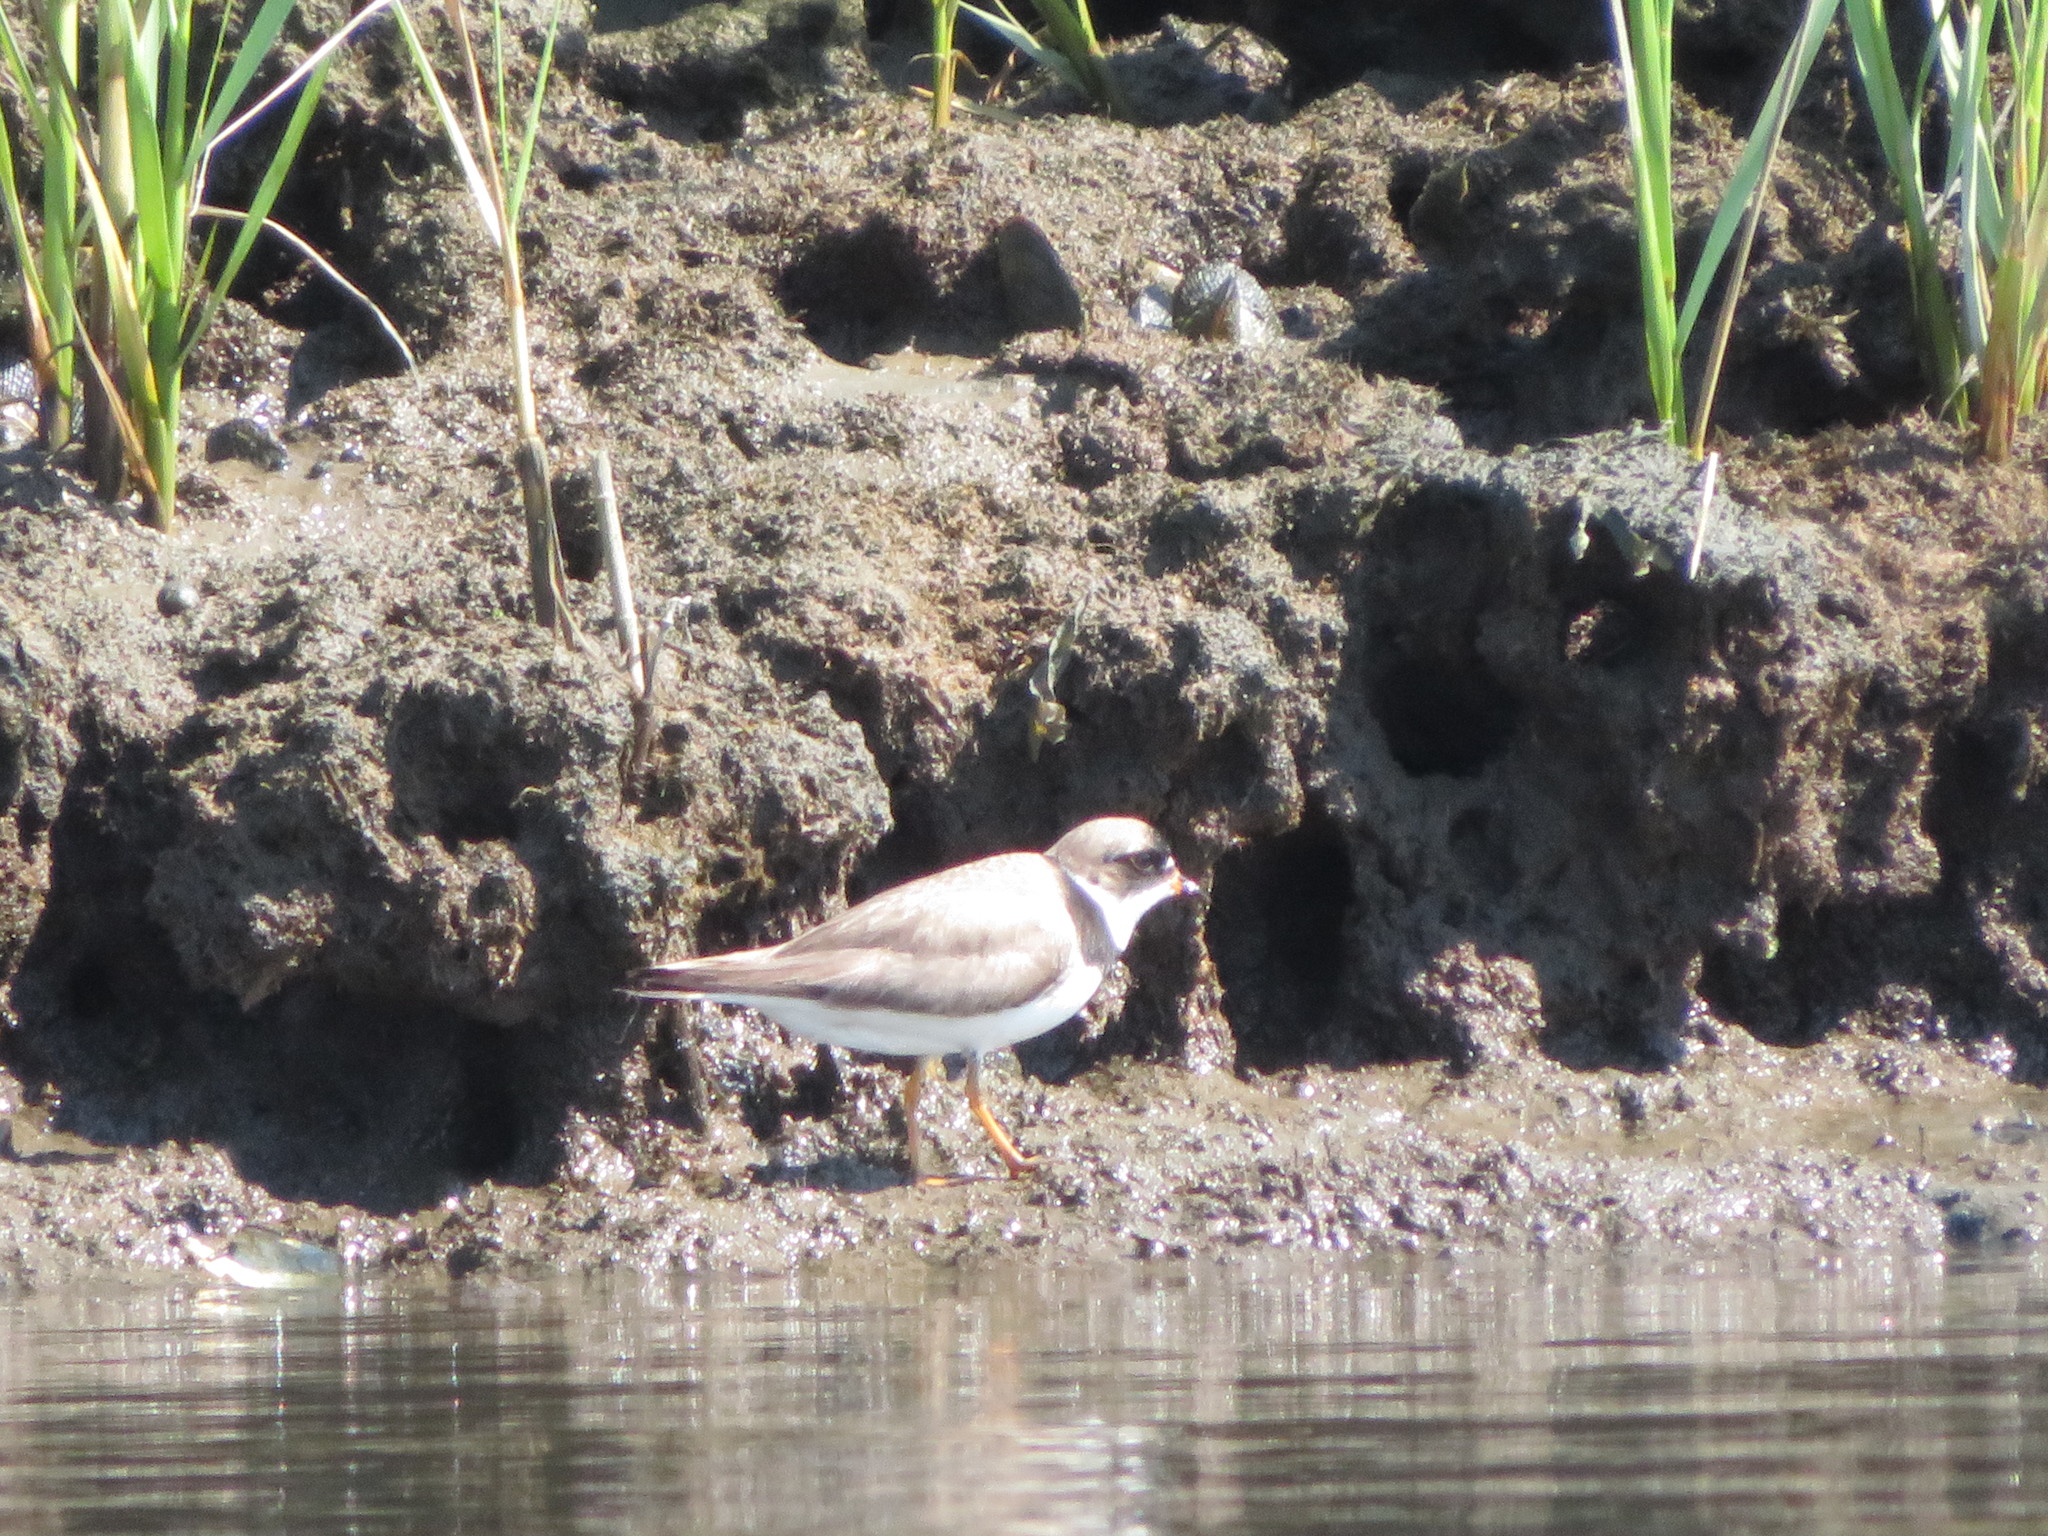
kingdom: Animalia
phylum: Chordata
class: Aves
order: Charadriiformes
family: Charadriidae
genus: Charadrius
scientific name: Charadrius semipalmatus
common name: Semipalmated plover
